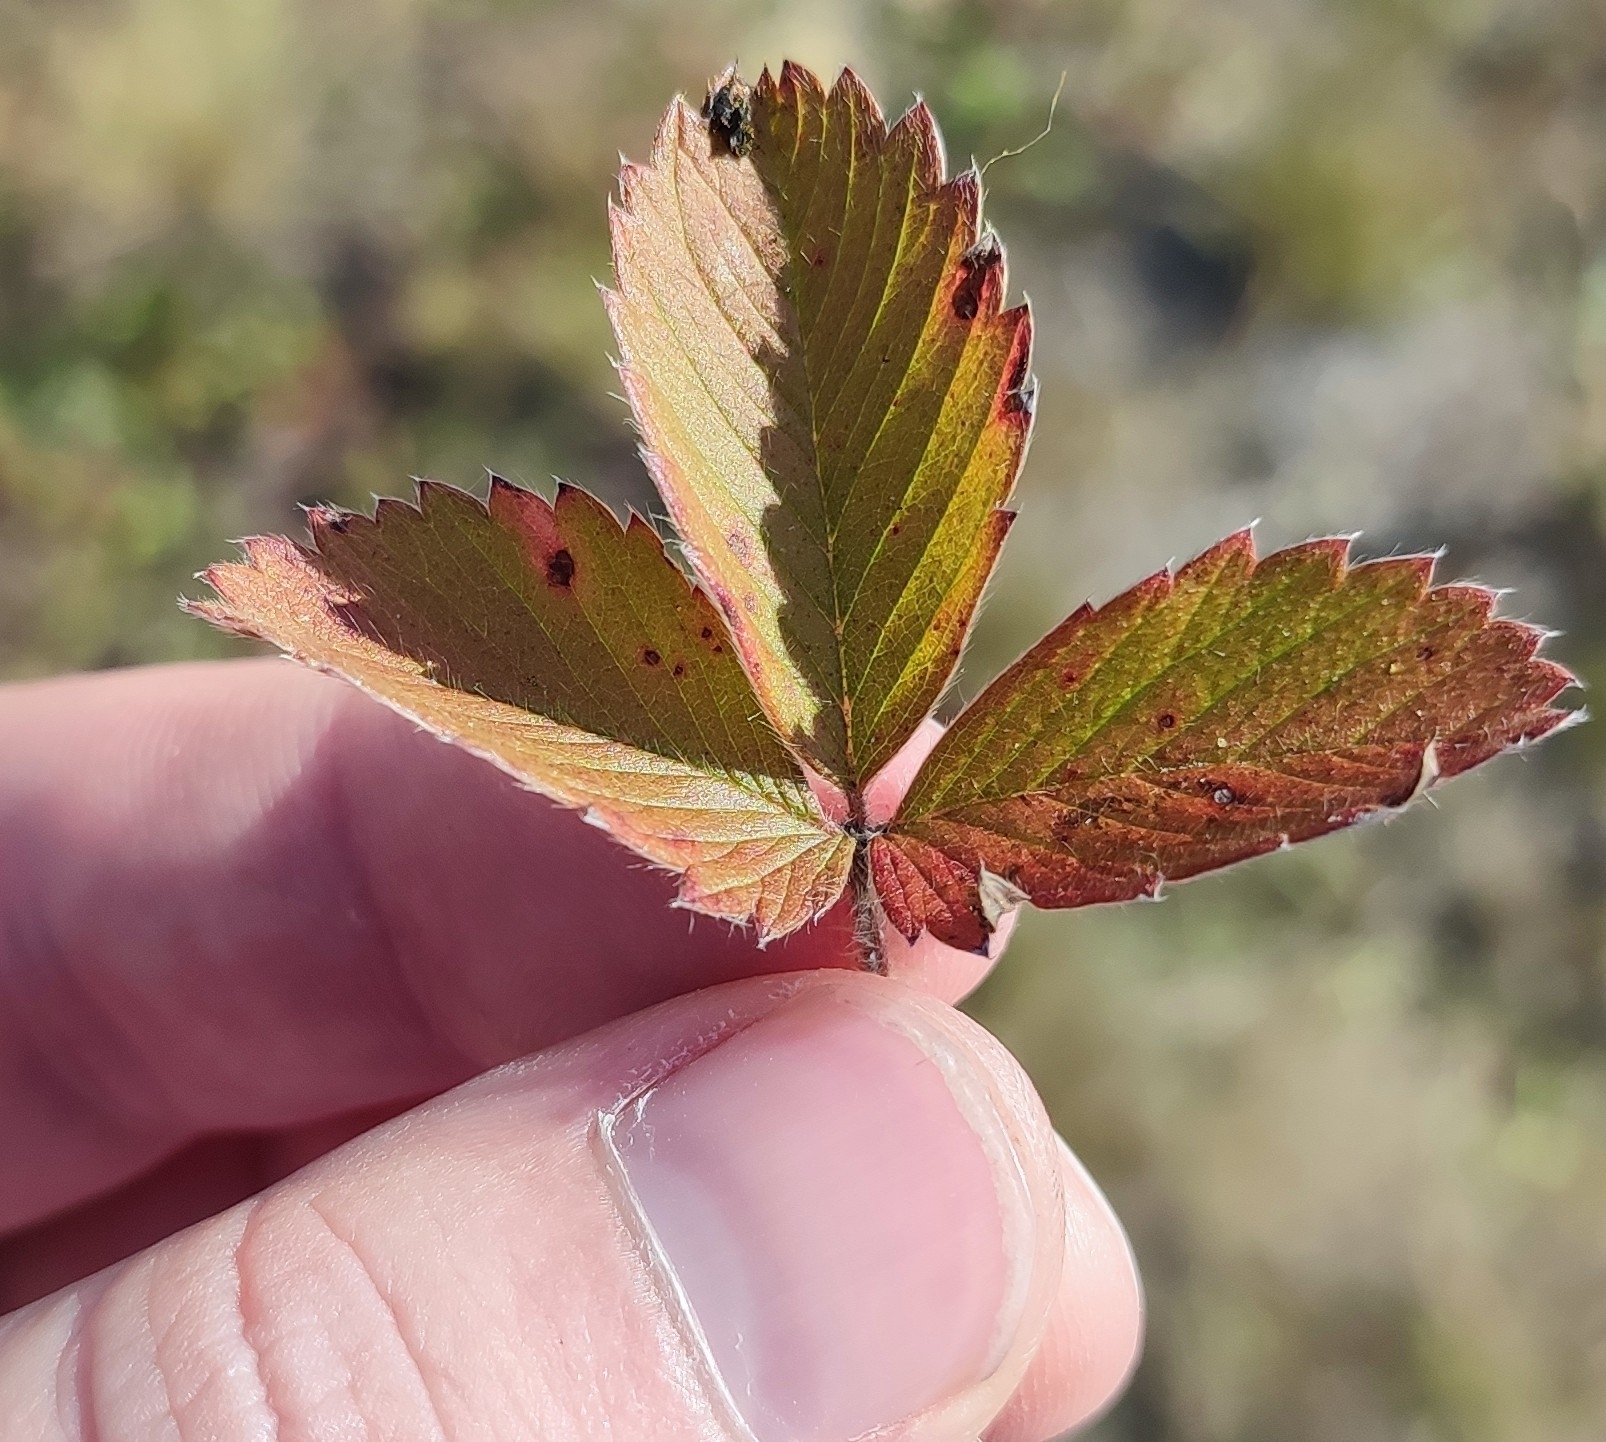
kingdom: Plantae
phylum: Tracheophyta
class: Magnoliopsida
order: Rosales
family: Rosaceae
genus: Fragaria
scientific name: Fragaria viridis
